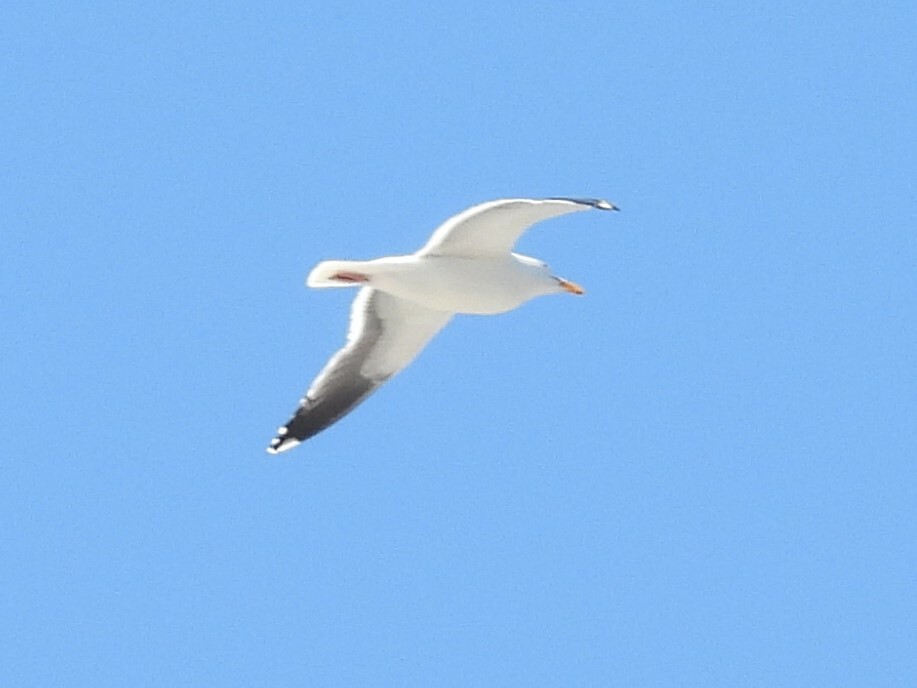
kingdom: Animalia
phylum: Chordata
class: Aves
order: Charadriiformes
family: Laridae
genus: Larus
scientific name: Larus occidentalis
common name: Western gull
